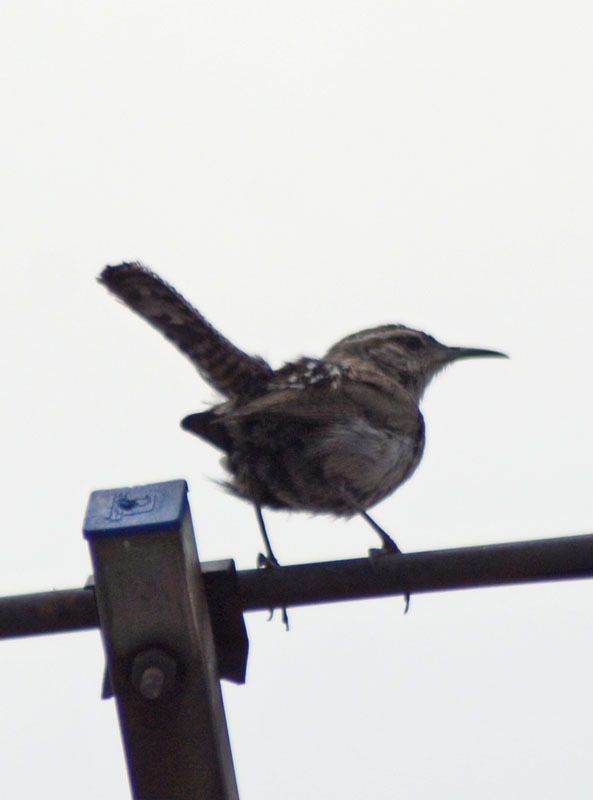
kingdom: Animalia
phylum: Chordata
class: Aves
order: Passeriformes
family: Troglodytidae
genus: Thryomanes
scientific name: Thryomanes bewickii
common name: Bewick's wren
